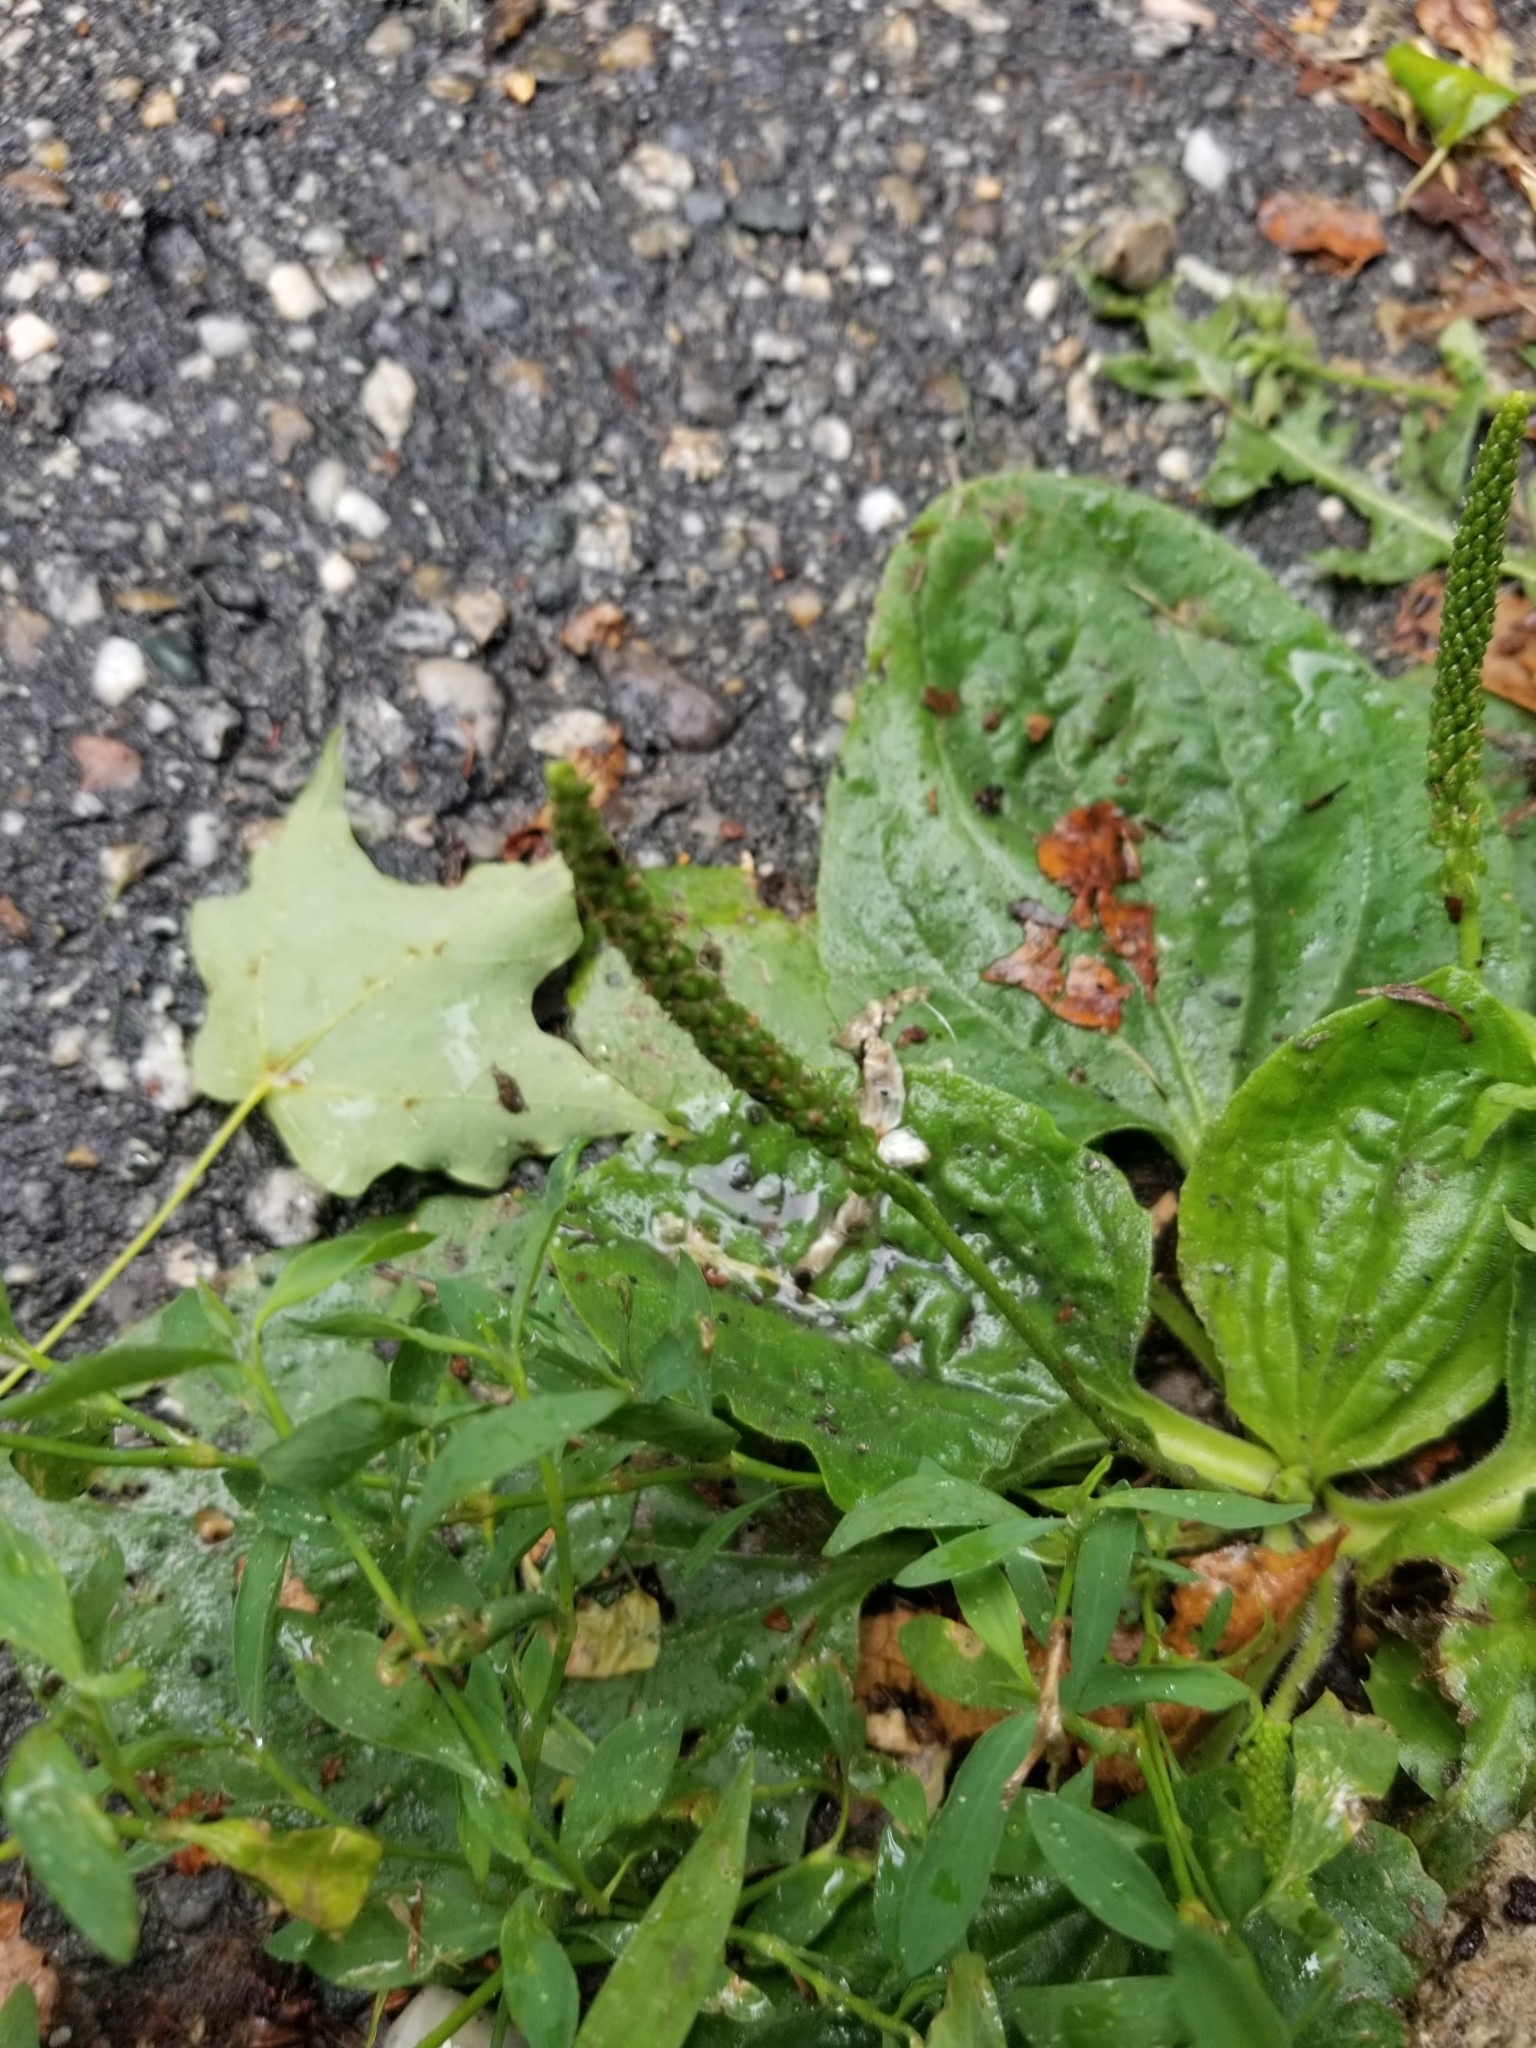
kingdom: Plantae
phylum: Tracheophyta
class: Magnoliopsida
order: Lamiales
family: Plantaginaceae
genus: Plantago
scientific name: Plantago major
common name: Common plantain
